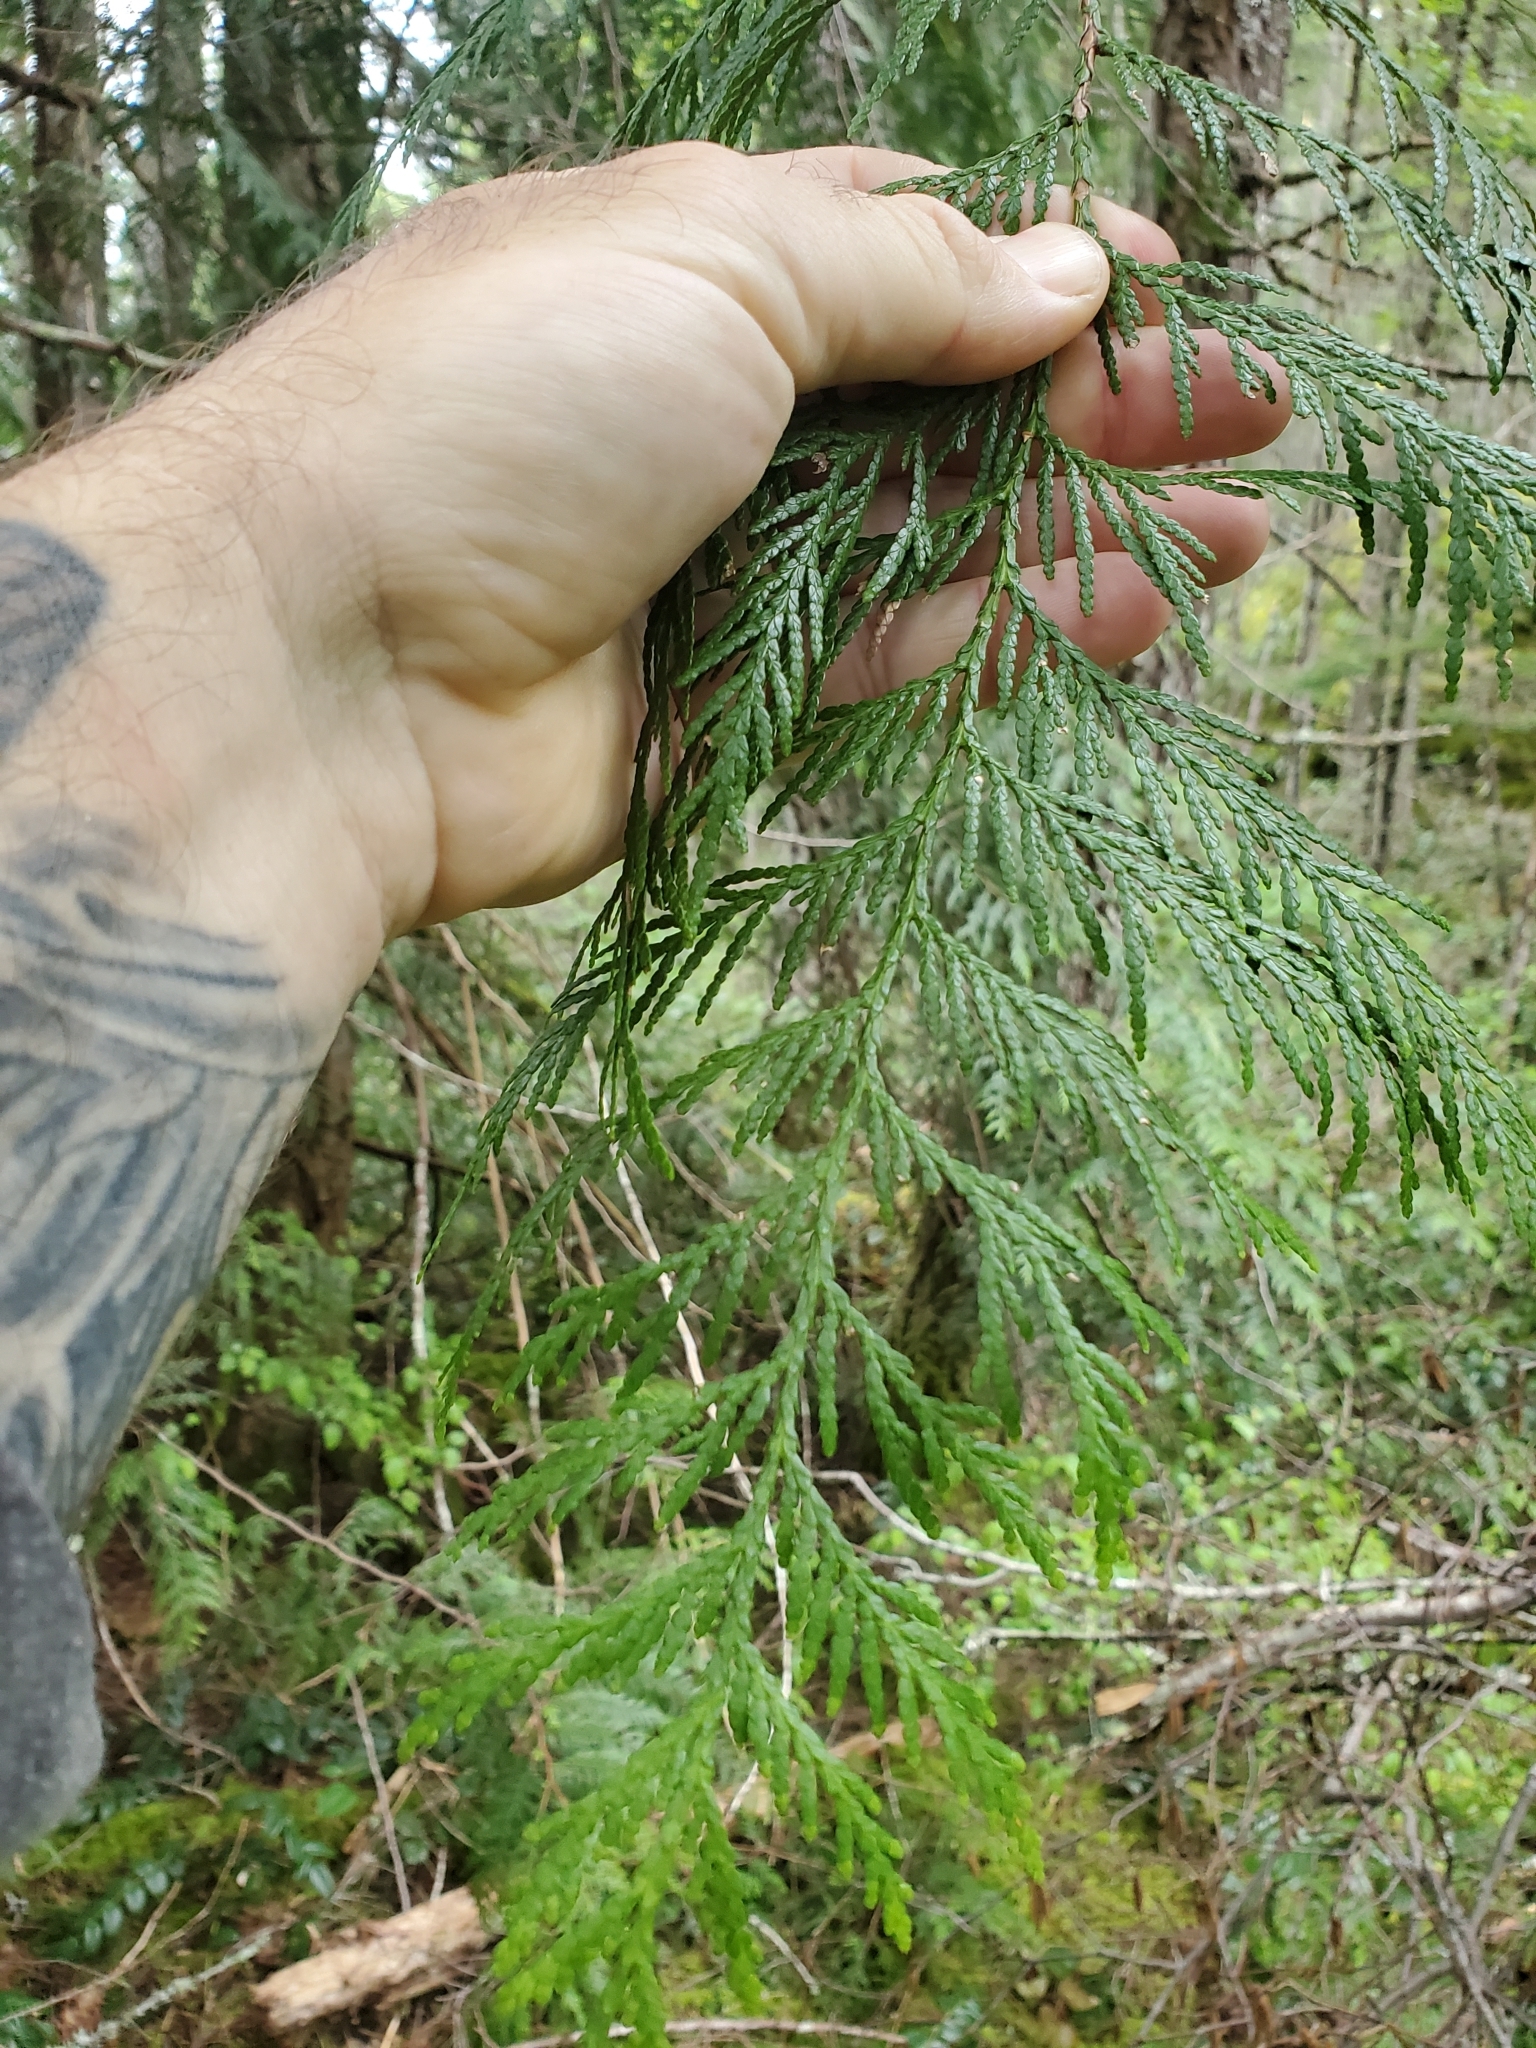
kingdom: Plantae
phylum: Tracheophyta
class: Pinopsida
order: Pinales
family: Cupressaceae
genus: Thuja
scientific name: Thuja plicata
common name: Western red-cedar
